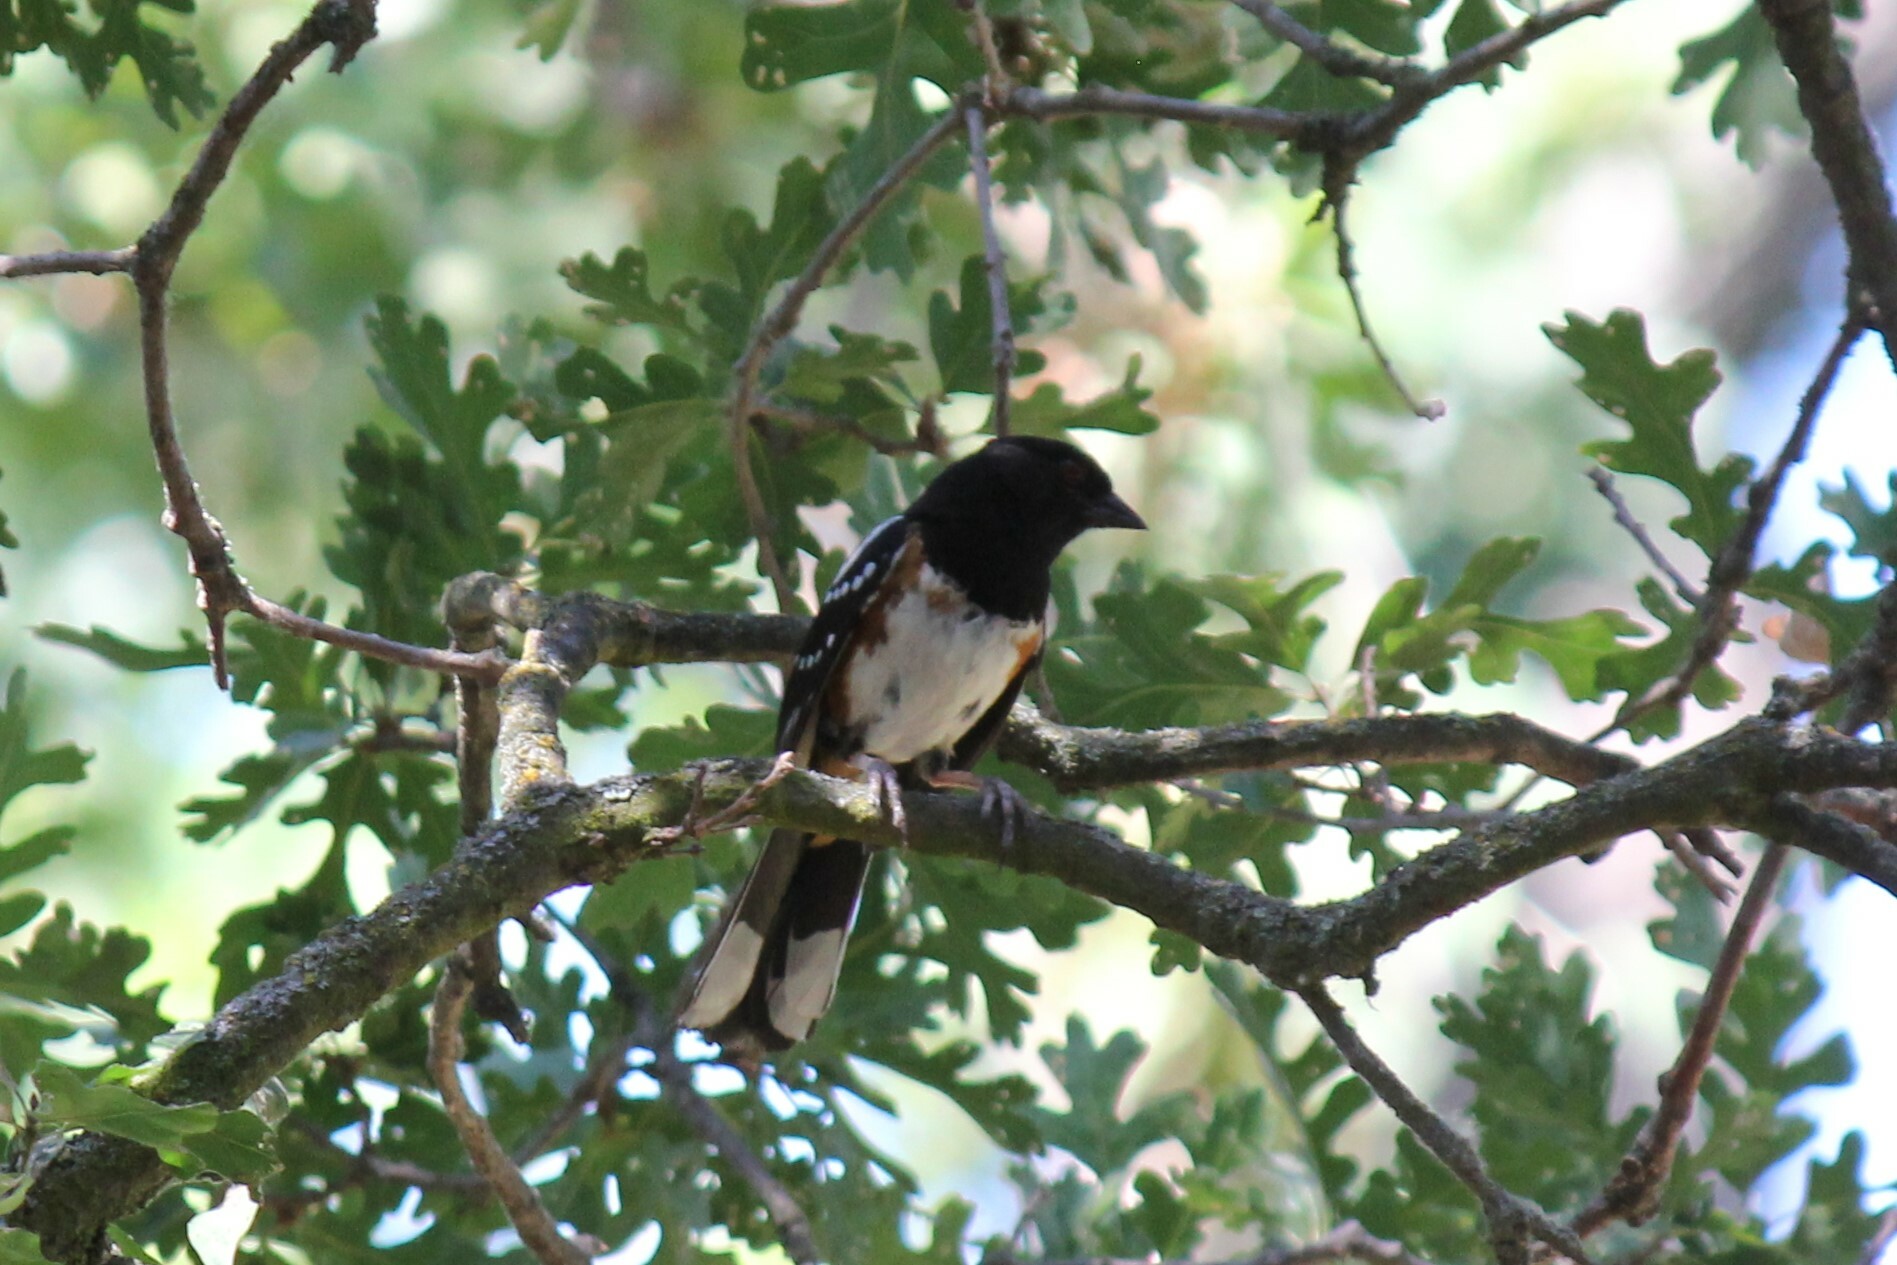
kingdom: Animalia
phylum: Chordata
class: Aves
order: Passeriformes
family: Passerellidae
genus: Pipilo
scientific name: Pipilo maculatus
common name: Spotted towhee
